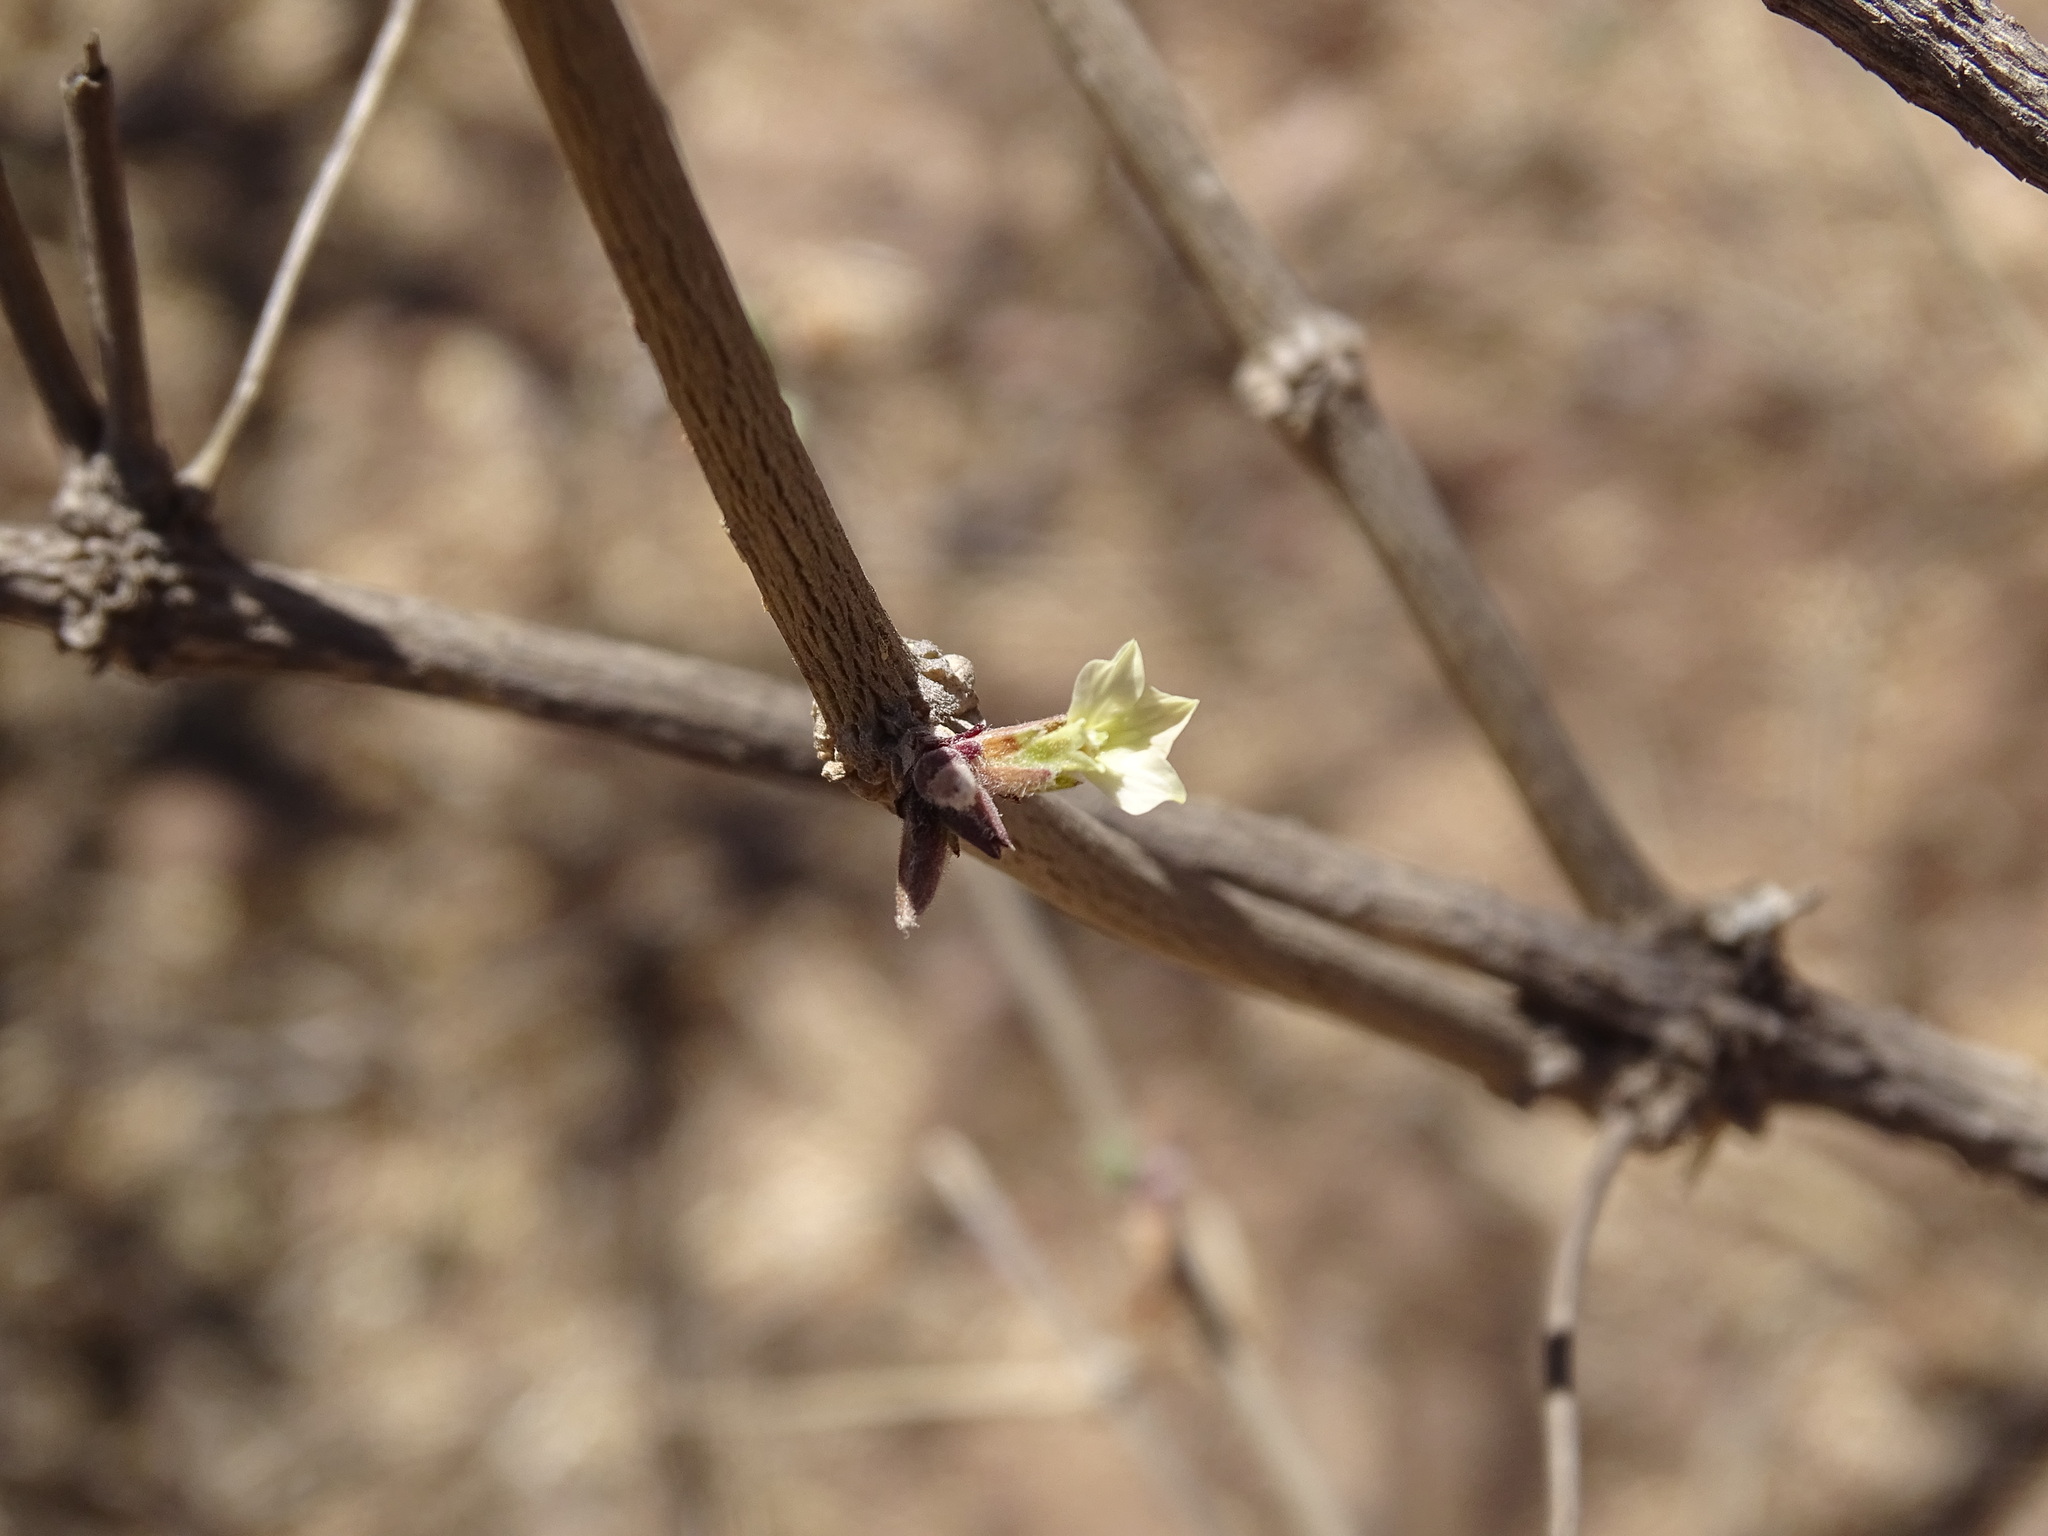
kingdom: Plantae
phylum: Tracheophyta
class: Magnoliopsida
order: Lamiales
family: Acanthaceae
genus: Holographis
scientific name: Holographis pallida
